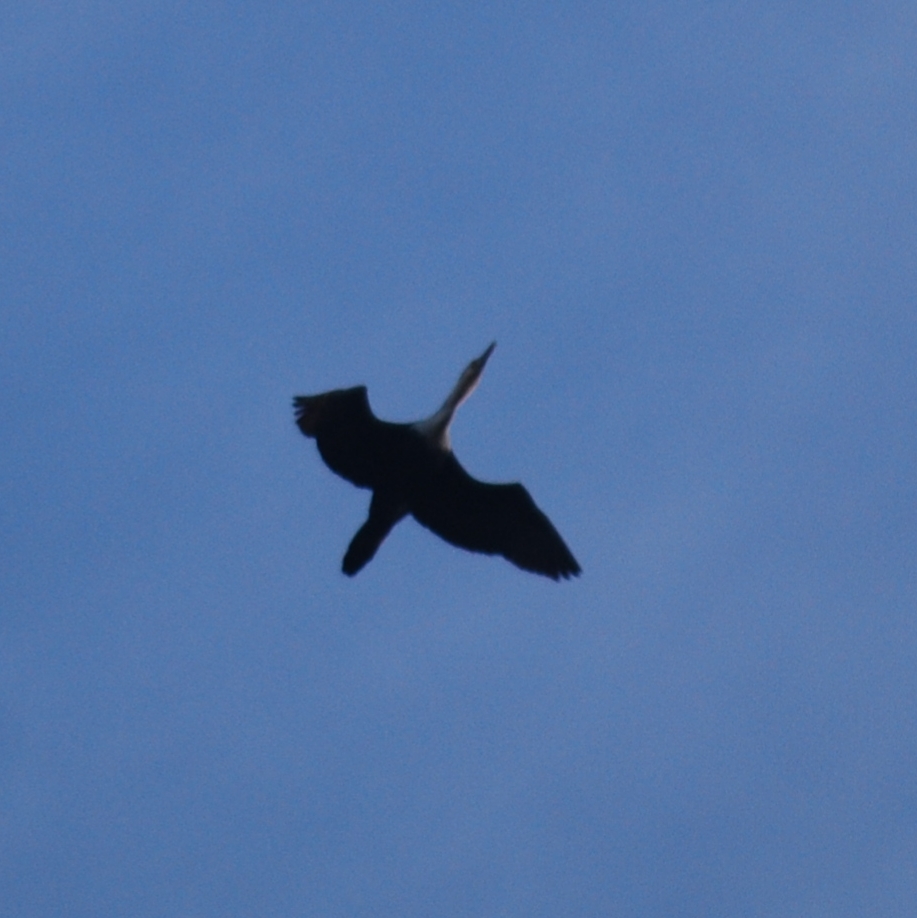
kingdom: Animalia
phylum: Chordata
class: Aves
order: Suliformes
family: Phalacrocoracidae
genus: Phalacrocorax
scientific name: Phalacrocorax carbo
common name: Great cormorant
